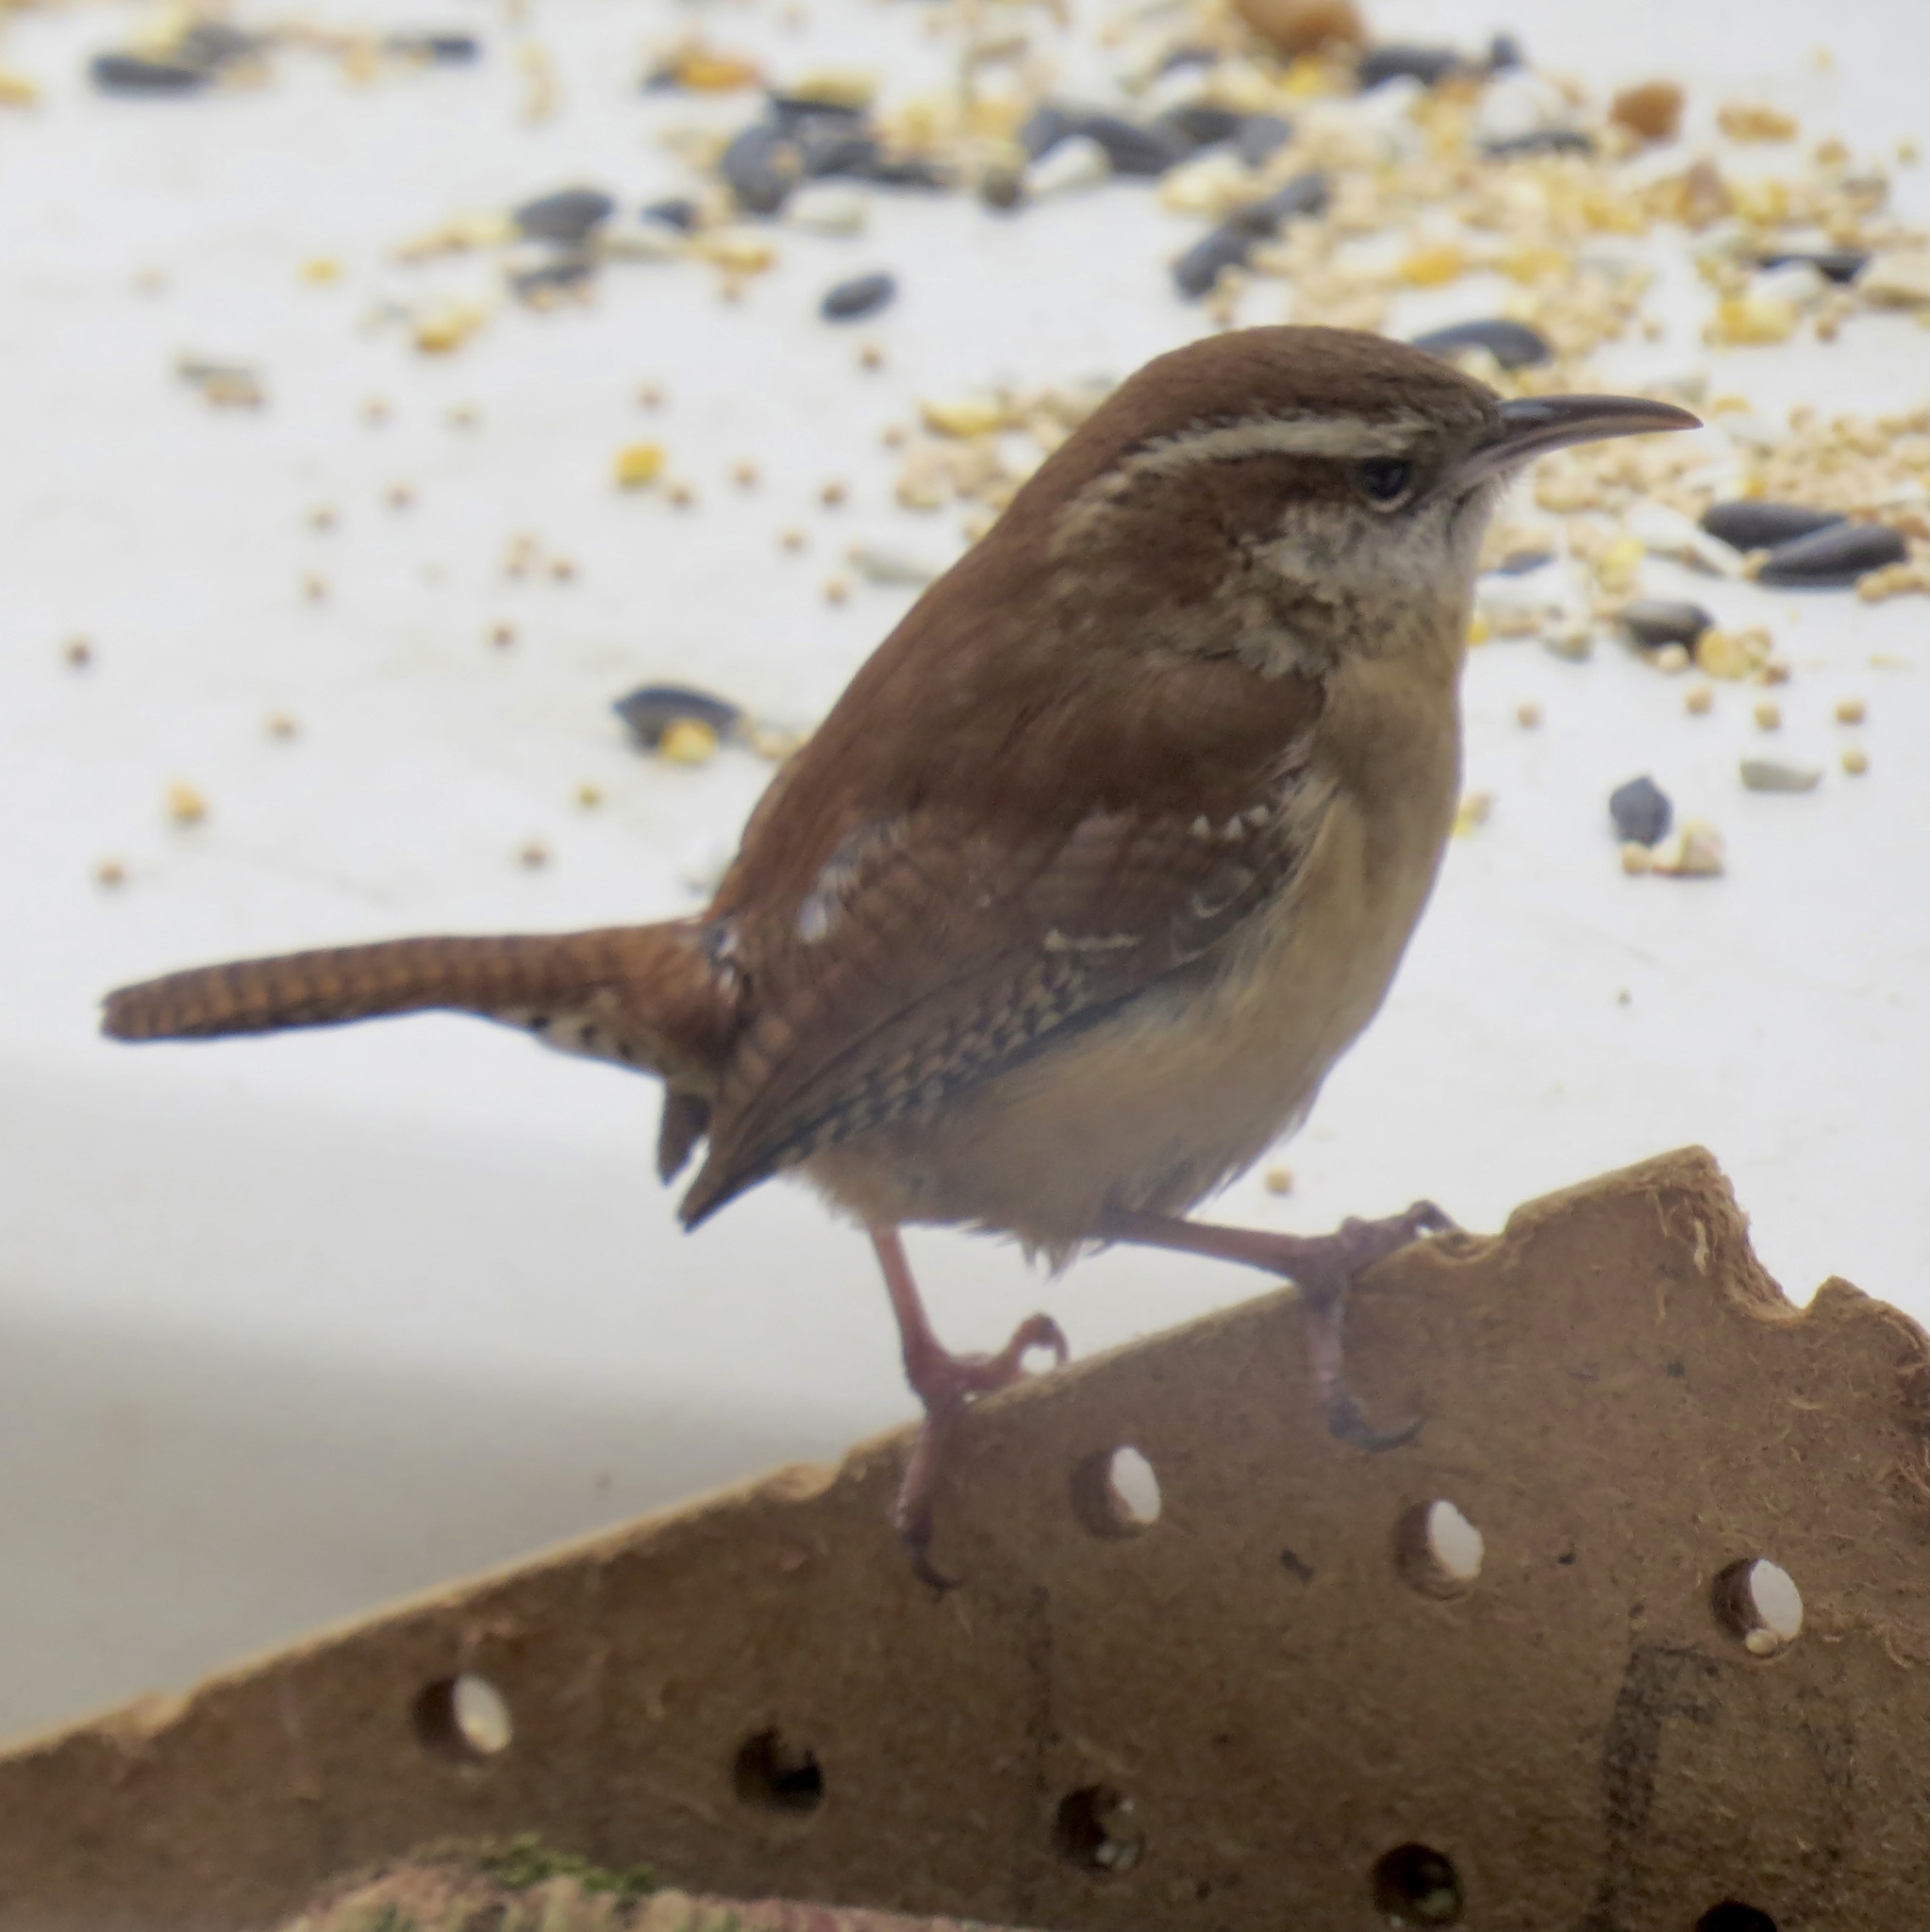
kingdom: Animalia
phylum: Chordata
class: Aves
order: Passeriformes
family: Troglodytidae
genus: Thryothorus
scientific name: Thryothorus ludovicianus
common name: Carolina wren
